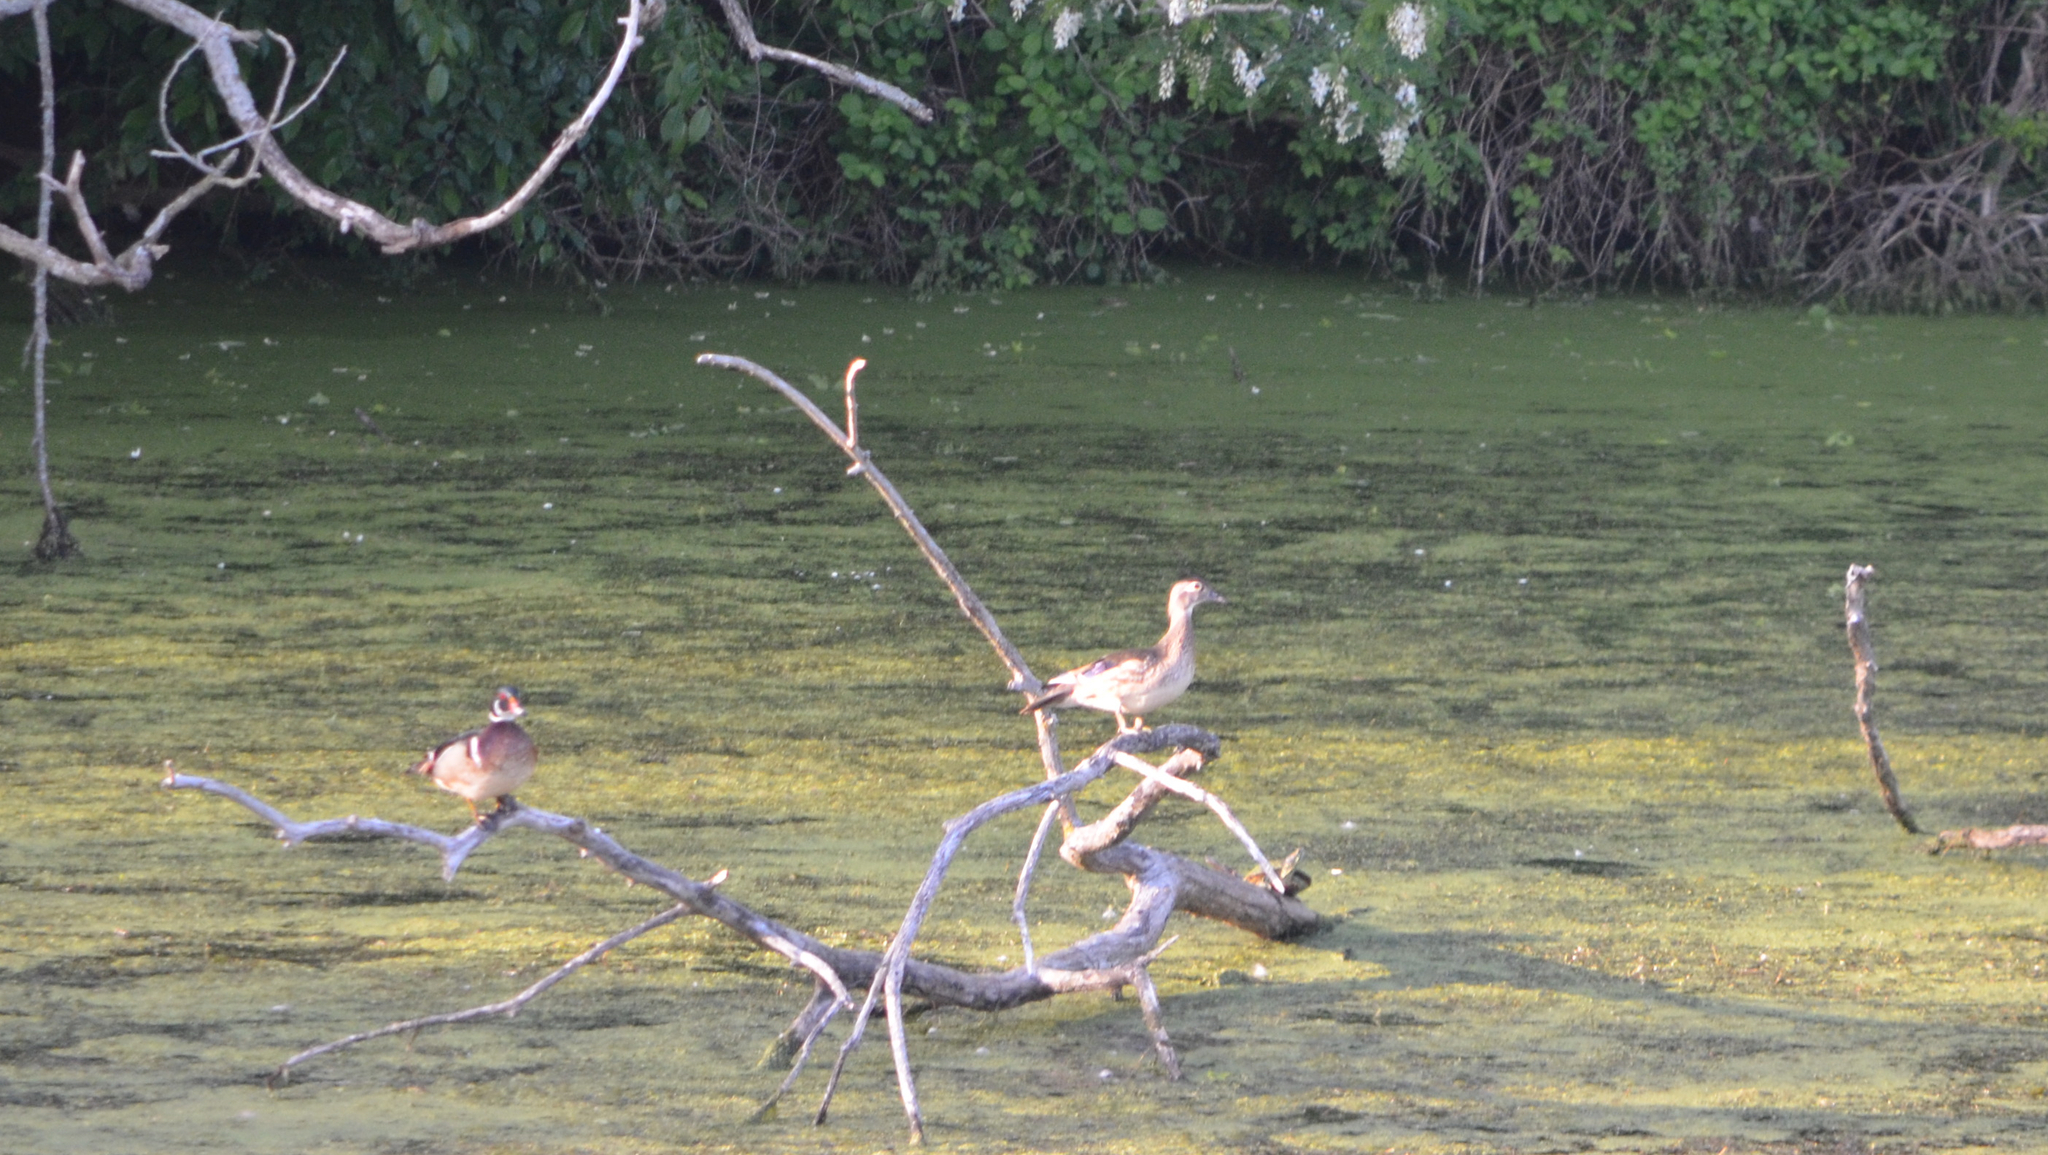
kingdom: Animalia
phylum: Chordata
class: Aves
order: Anseriformes
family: Anatidae
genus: Aix
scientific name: Aix sponsa
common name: Wood duck
